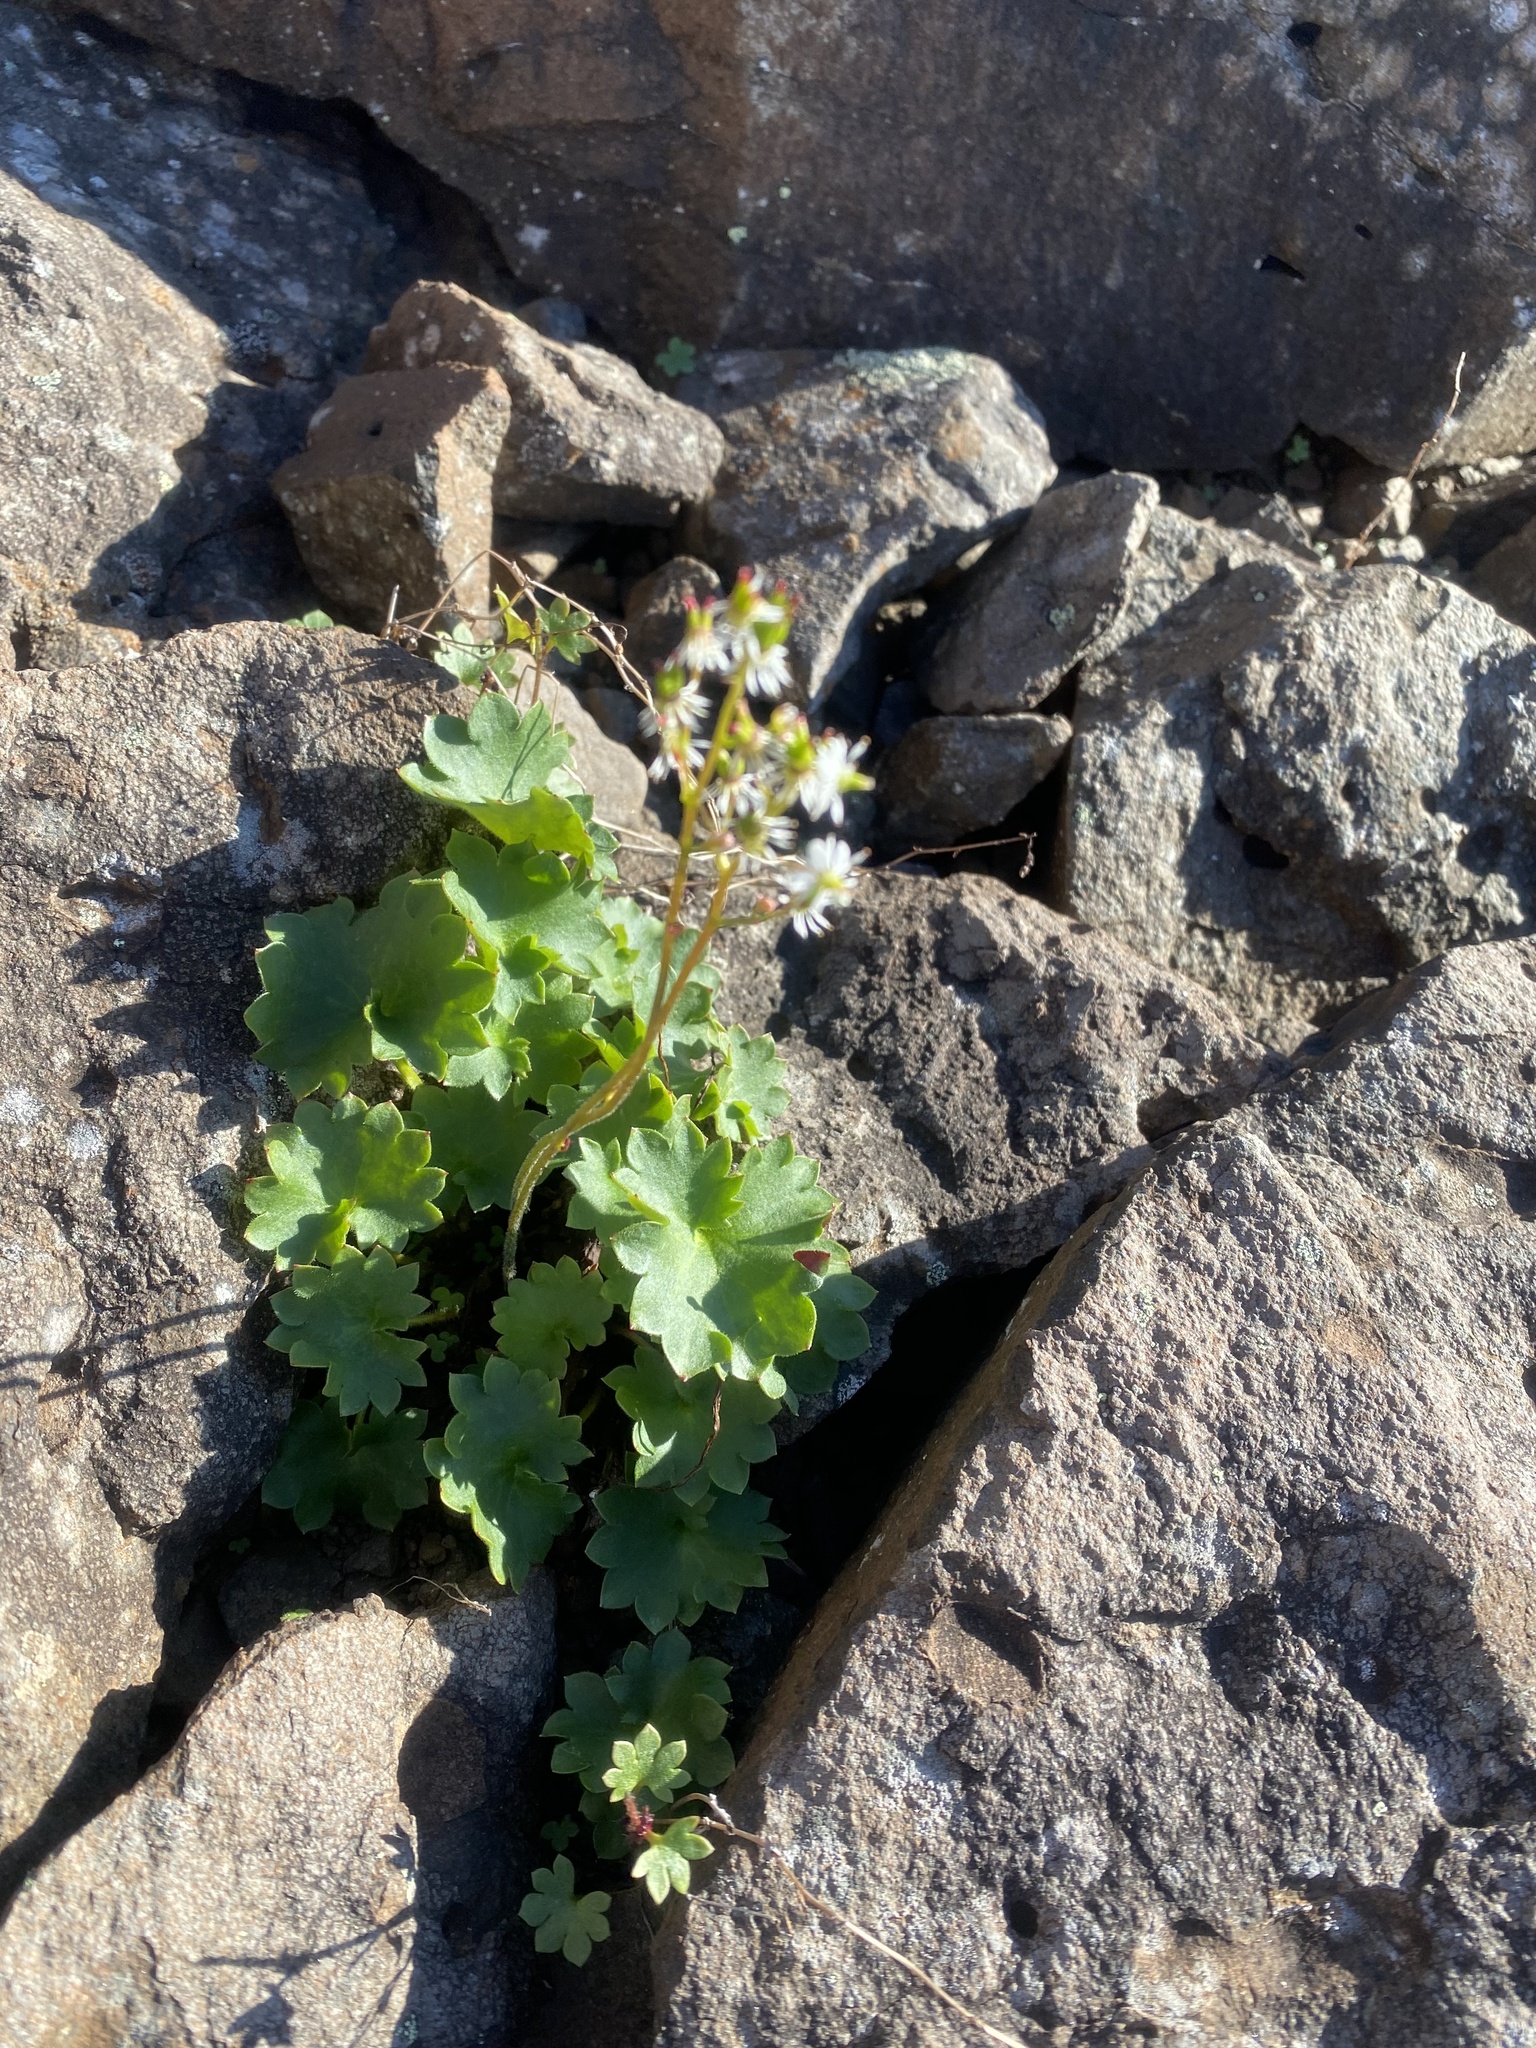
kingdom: Plantae
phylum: Tracheophyta
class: Magnoliopsida
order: Saxifragales
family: Saxifragaceae
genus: Micranthes
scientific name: Micranthes nelsoniana
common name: Nelson's saxifrage
